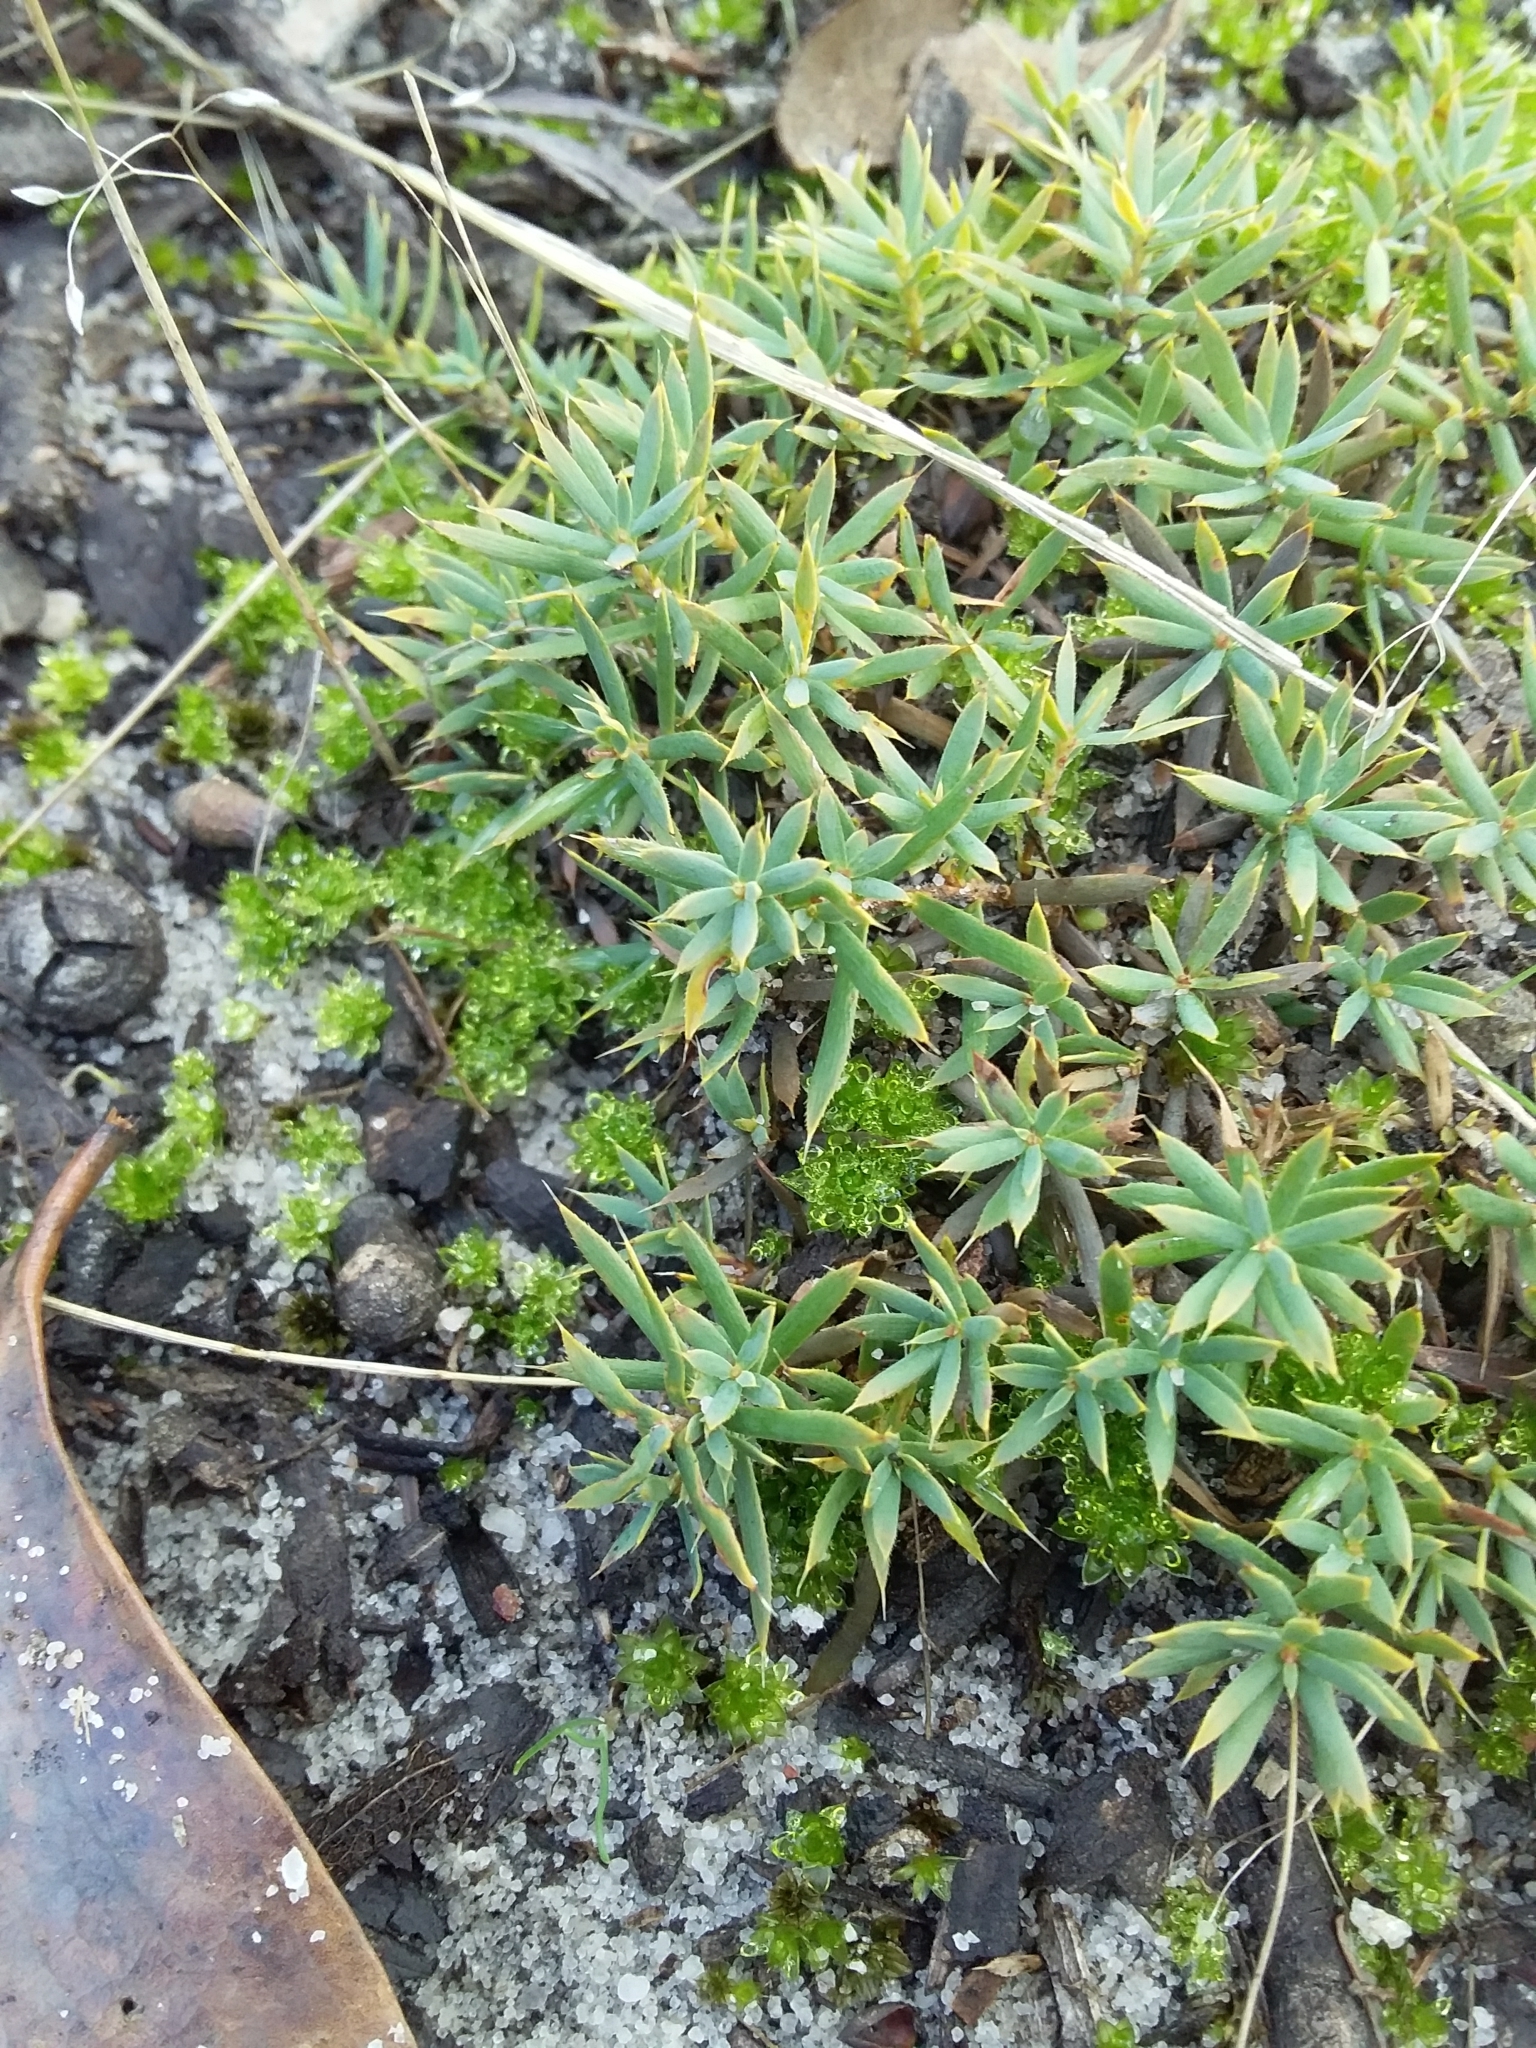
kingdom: Plantae
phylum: Tracheophyta
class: Magnoliopsida
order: Ericales
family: Ericaceae
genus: Styphelia
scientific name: Styphelia humifusa
